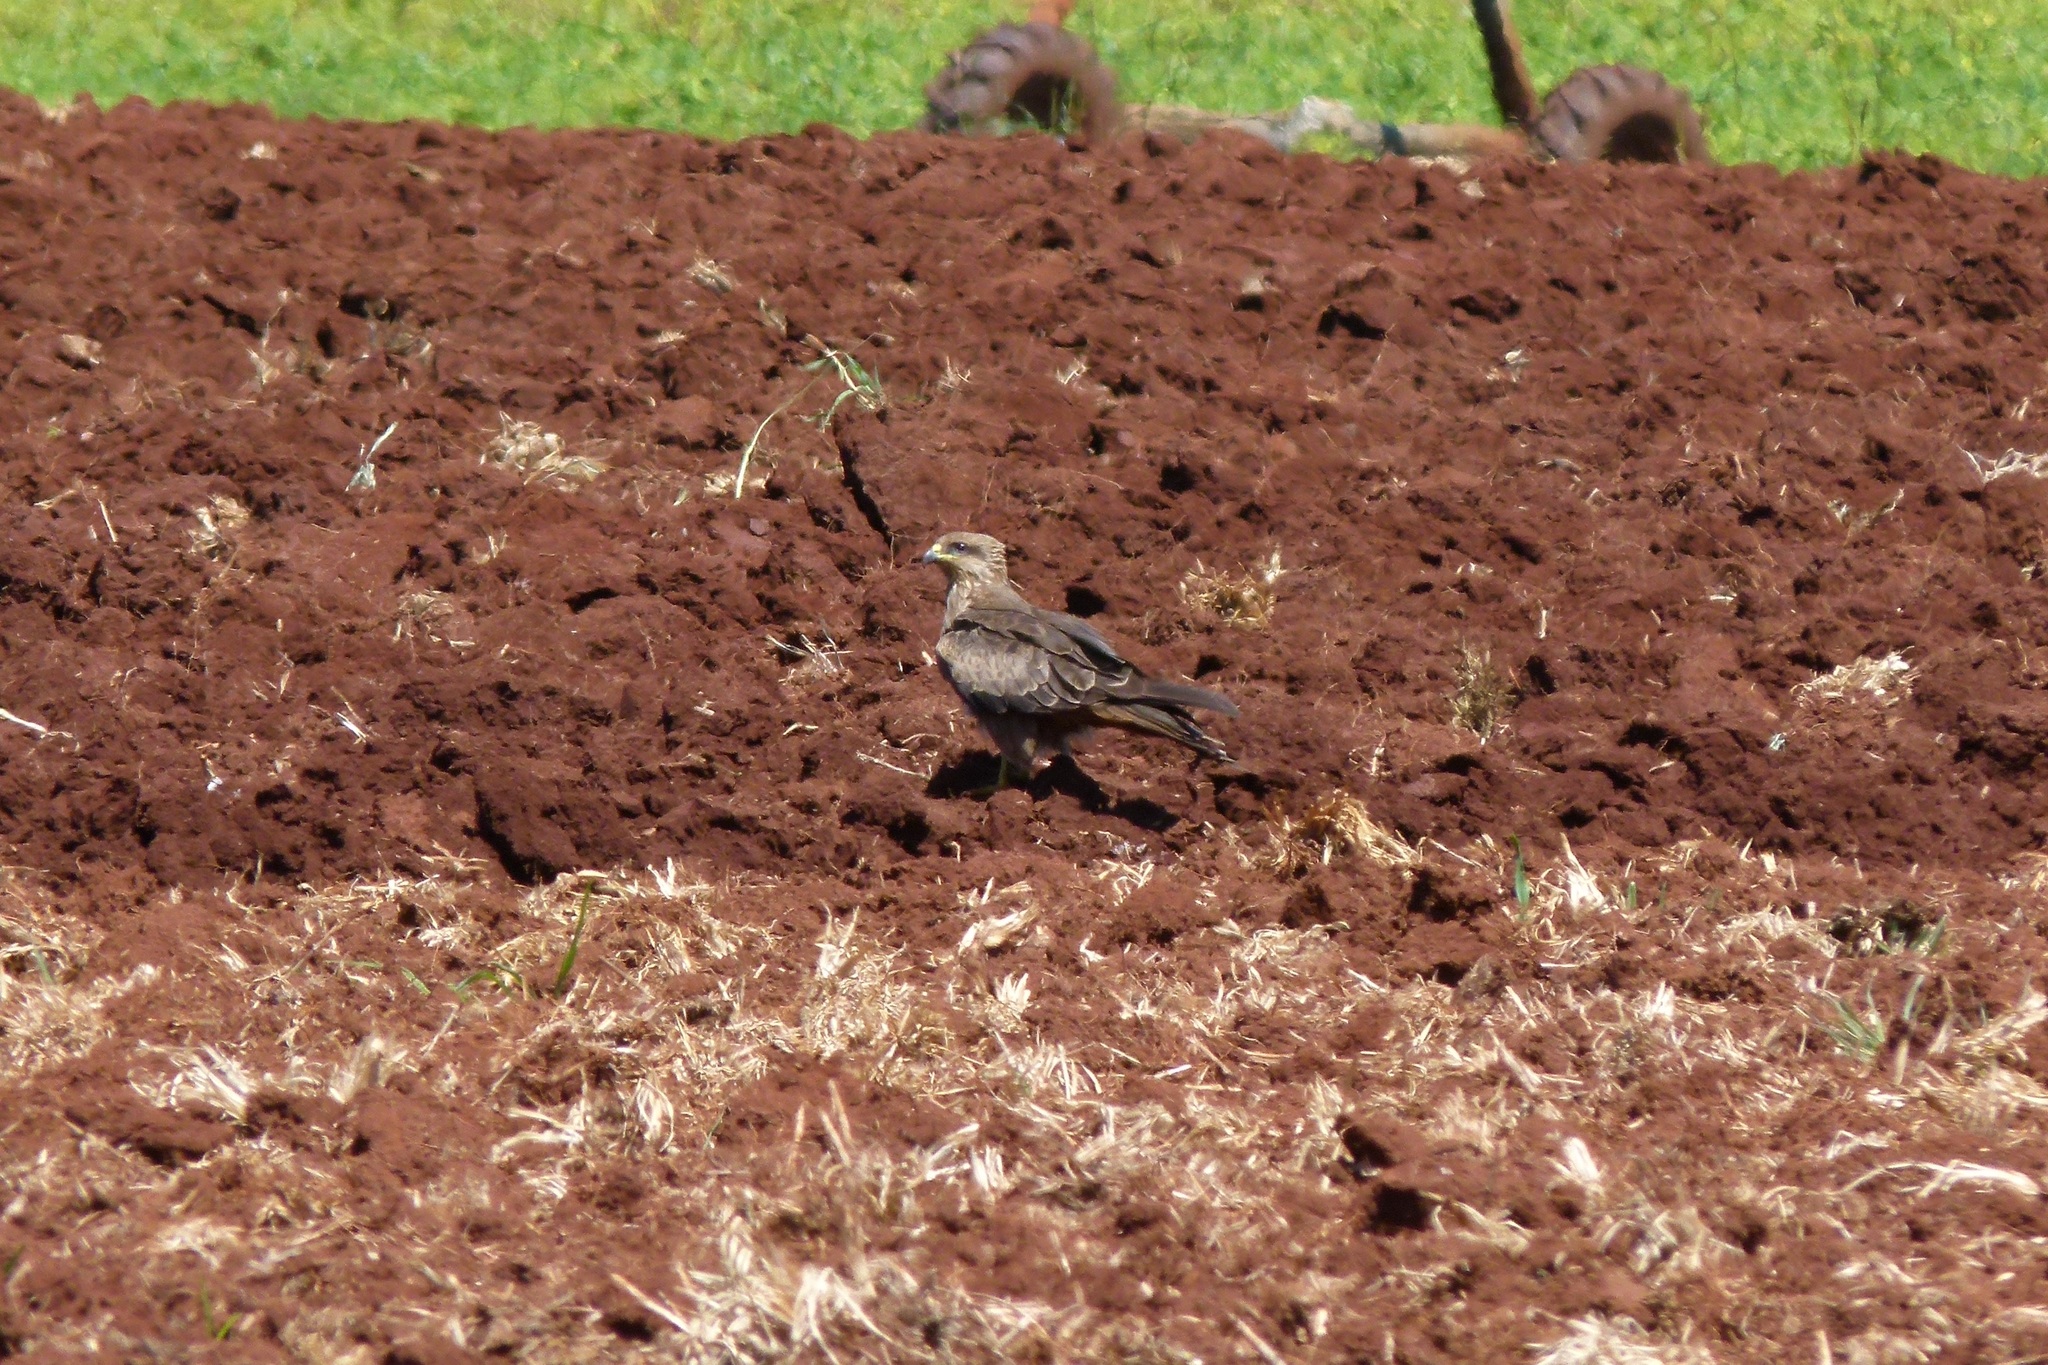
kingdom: Animalia
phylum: Chordata
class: Aves
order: Accipitriformes
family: Accipitridae
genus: Milvus
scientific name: Milvus migrans
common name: Black kite
